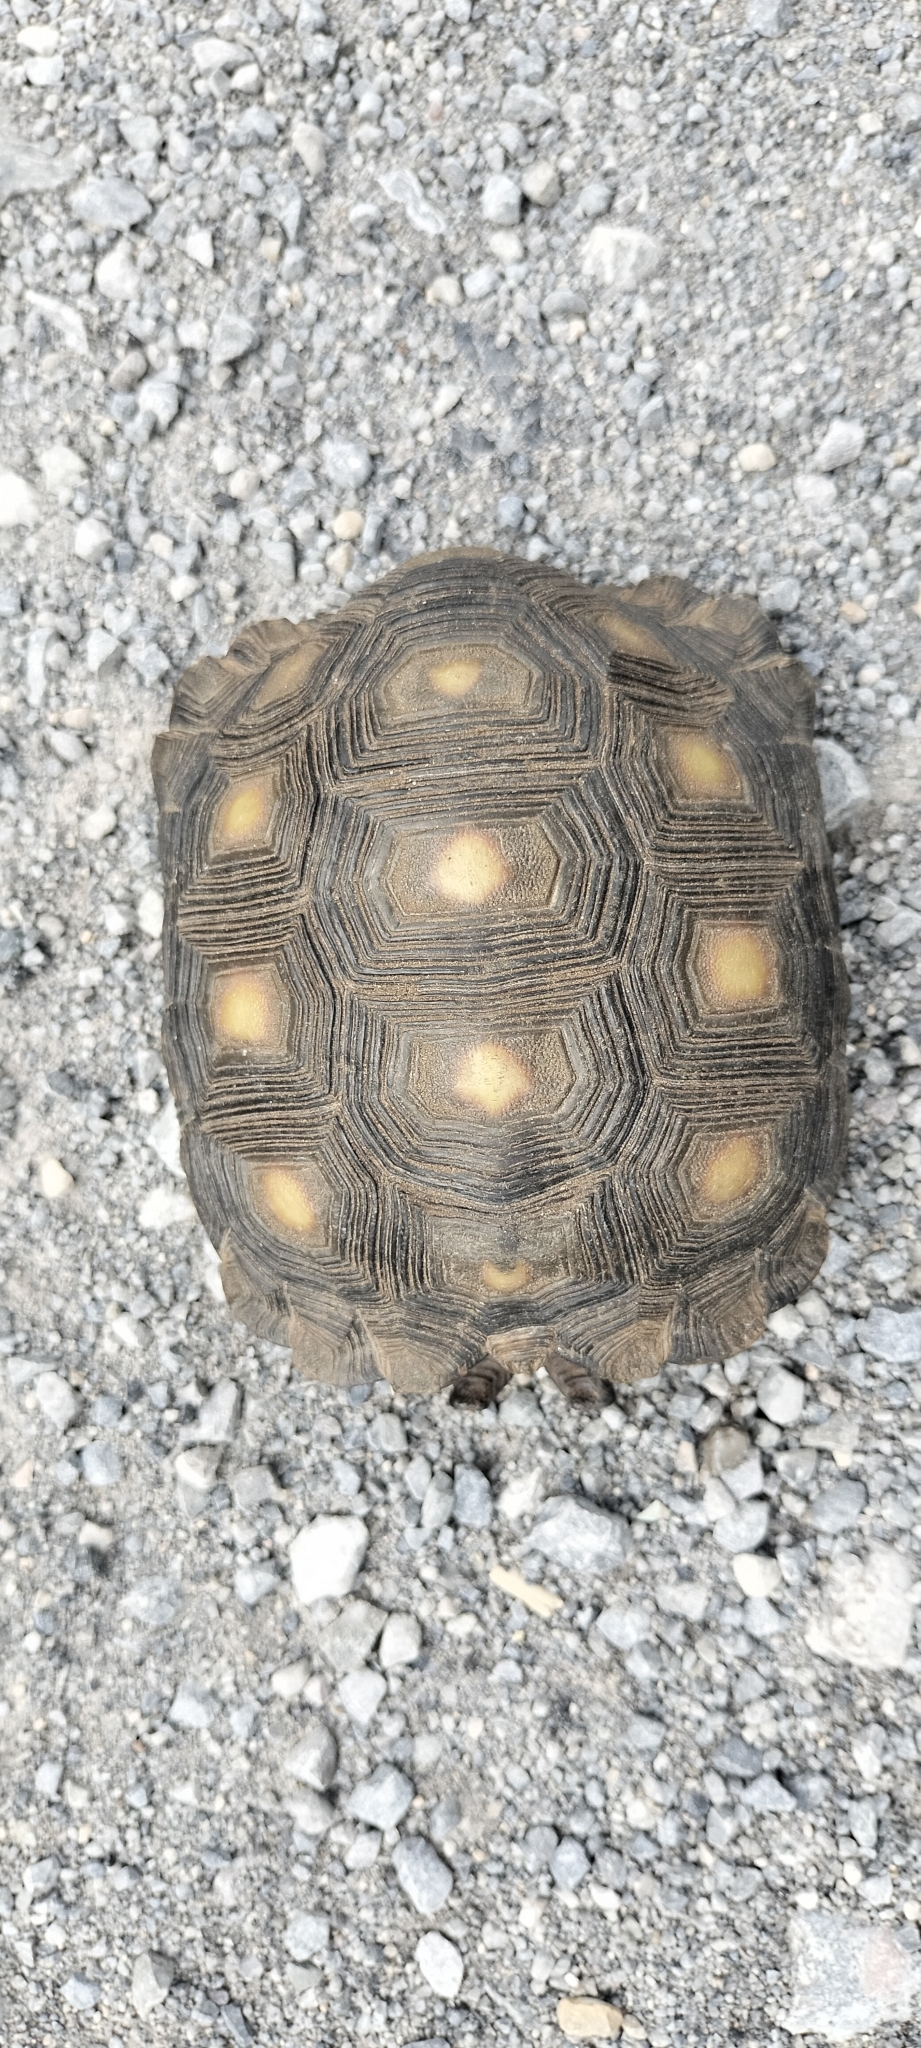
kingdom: Animalia
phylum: Chordata
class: Testudines
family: Testudinidae
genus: Gopherus
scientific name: Gopherus berlandieri
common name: Texas (gopher )tortoise
